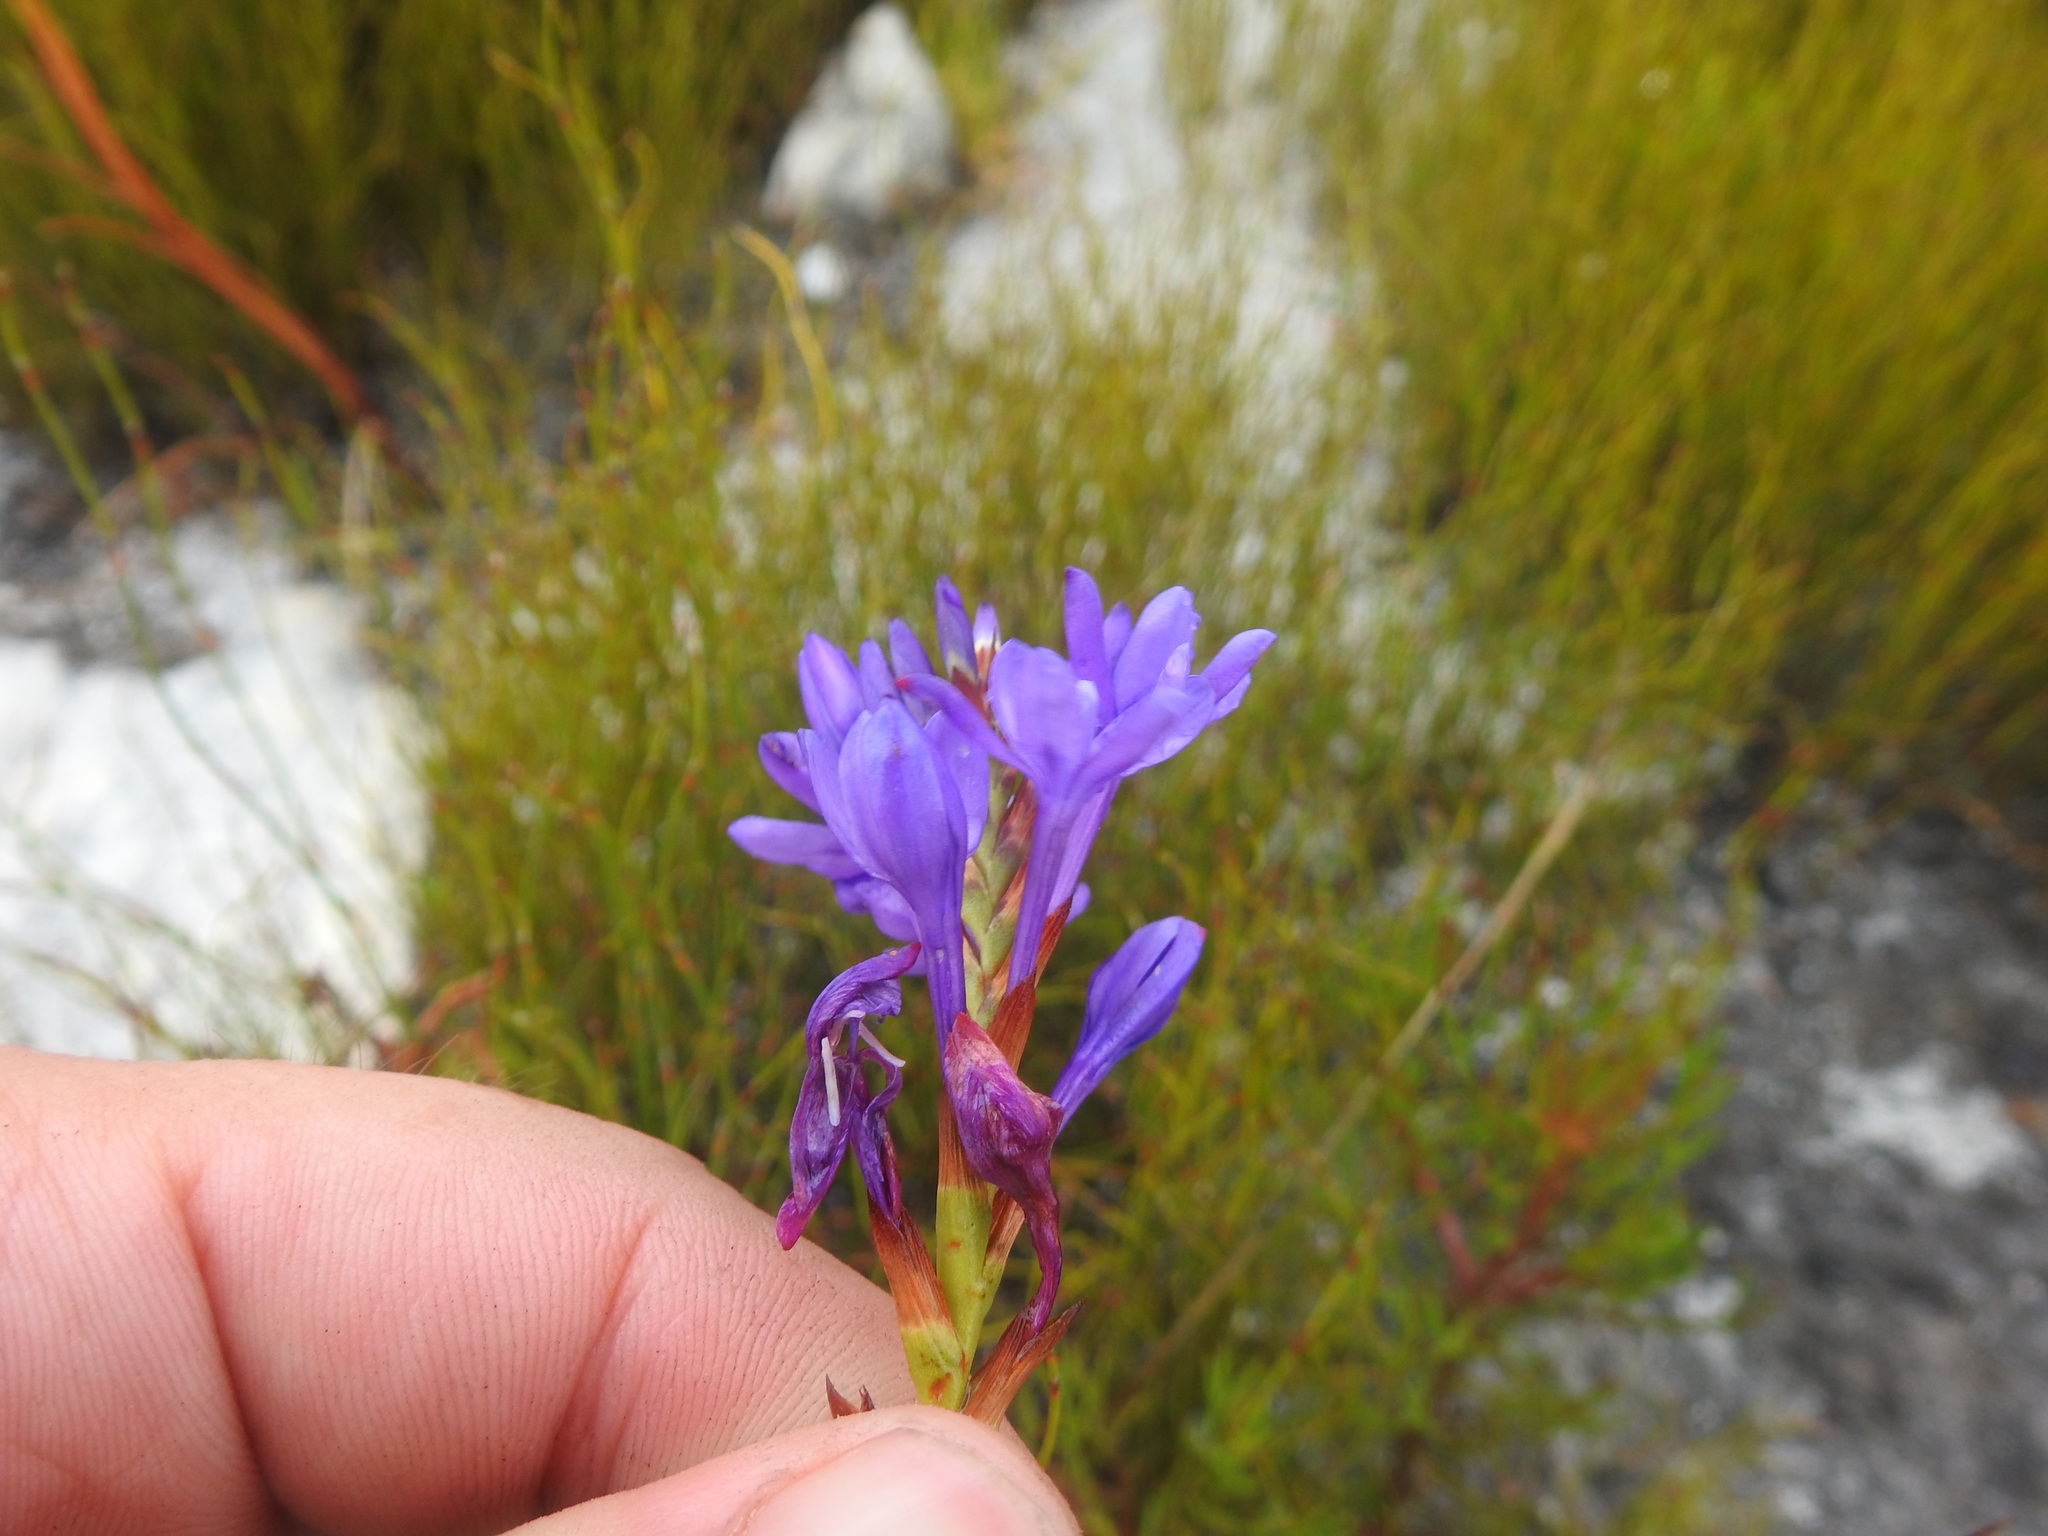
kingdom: Plantae
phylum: Tracheophyta
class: Liliopsida
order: Asparagales
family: Iridaceae
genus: Thereianthus
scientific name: Thereianthus spicatus
